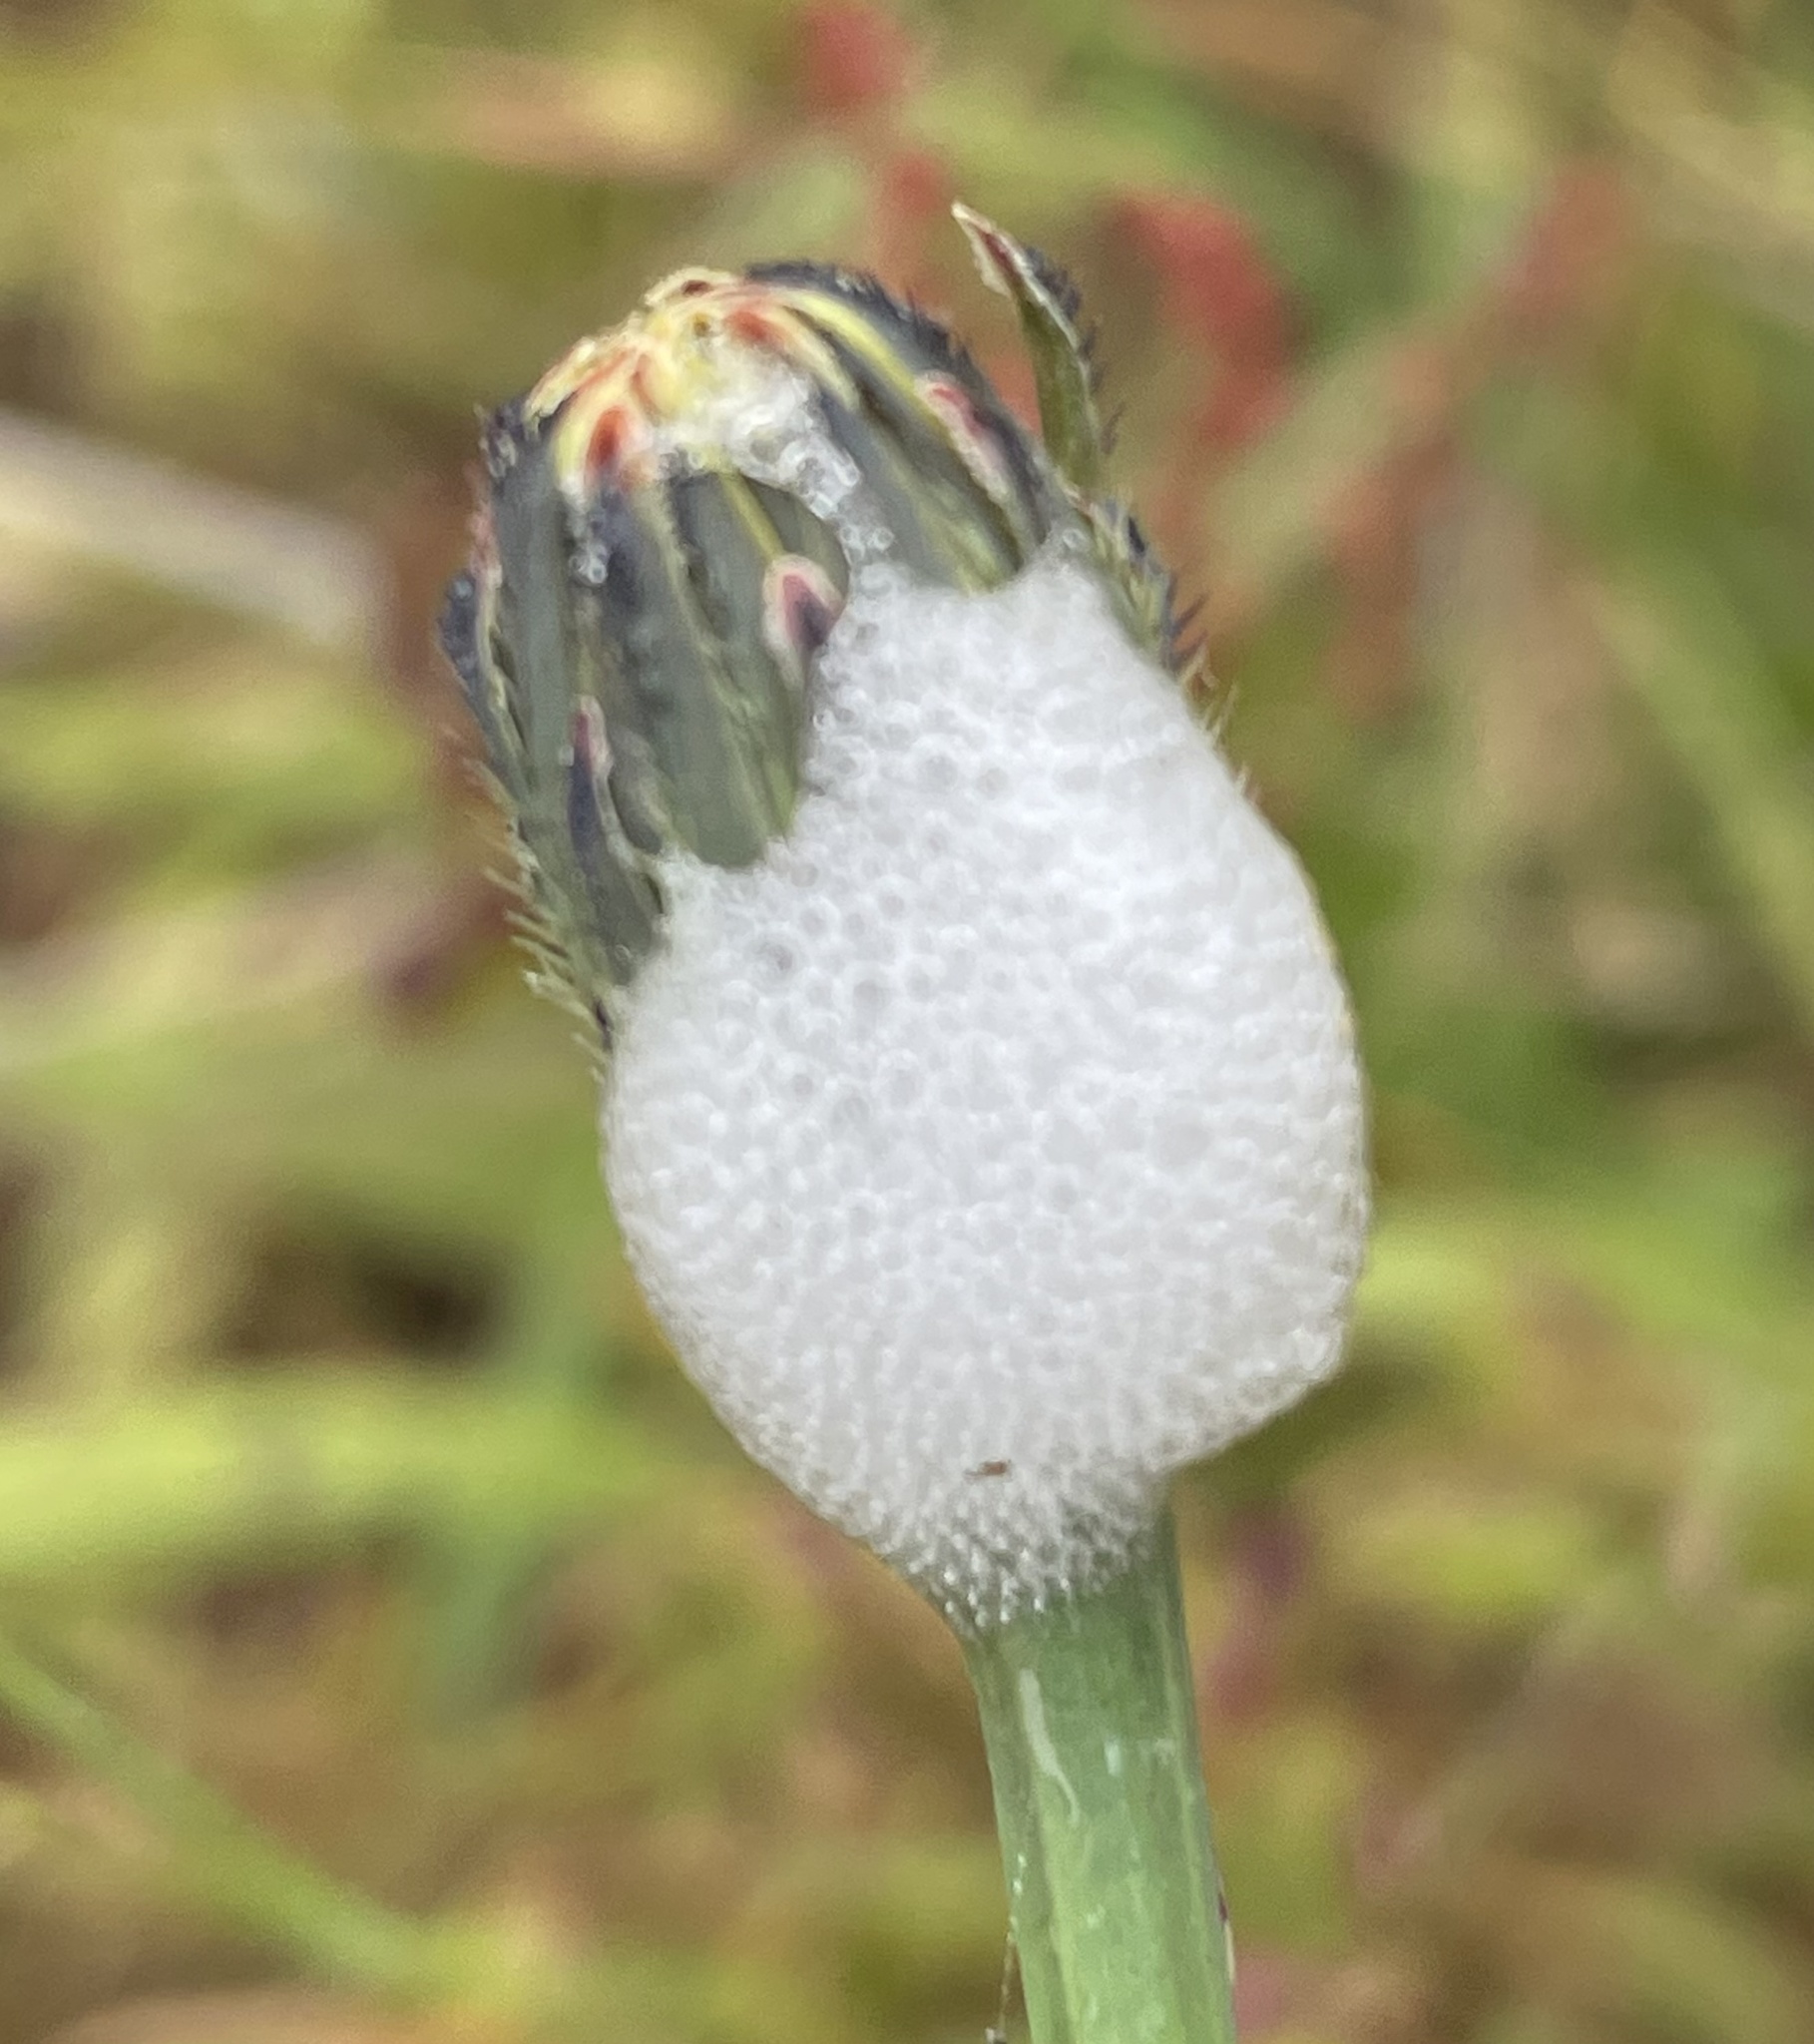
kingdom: Animalia
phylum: Arthropoda
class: Insecta
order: Hemiptera
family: Aphrophoridae
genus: Philaenus
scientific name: Philaenus spumarius
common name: Meadow spittlebug
